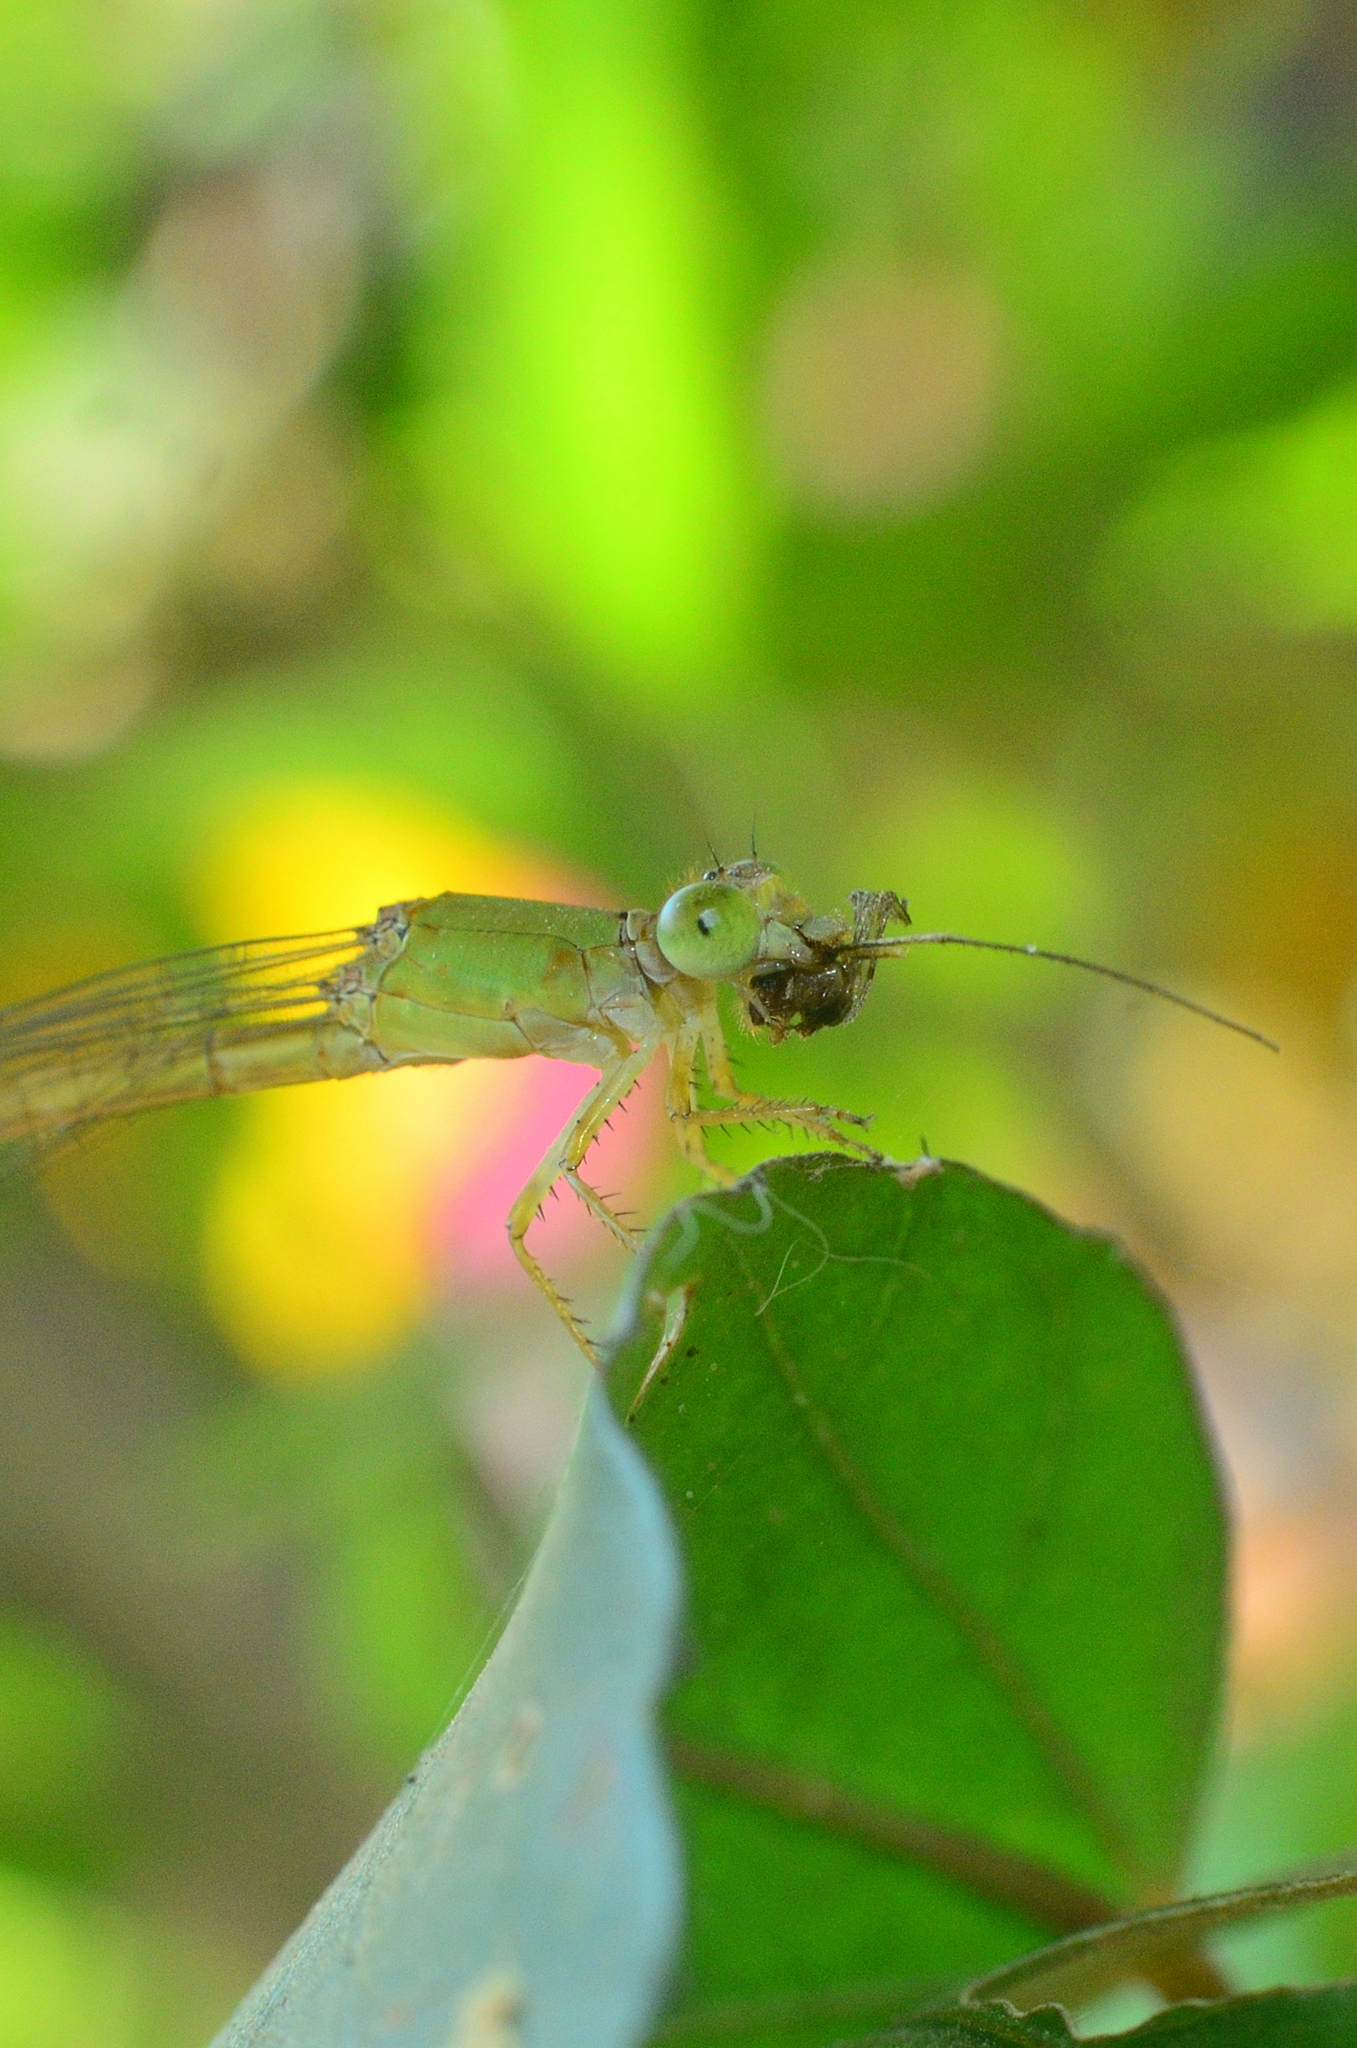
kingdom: Animalia
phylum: Arthropoda
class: Insecta
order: Odonata
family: Coenagrionidae
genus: Ceriagrion
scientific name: Ceriagrion coromandelianum
